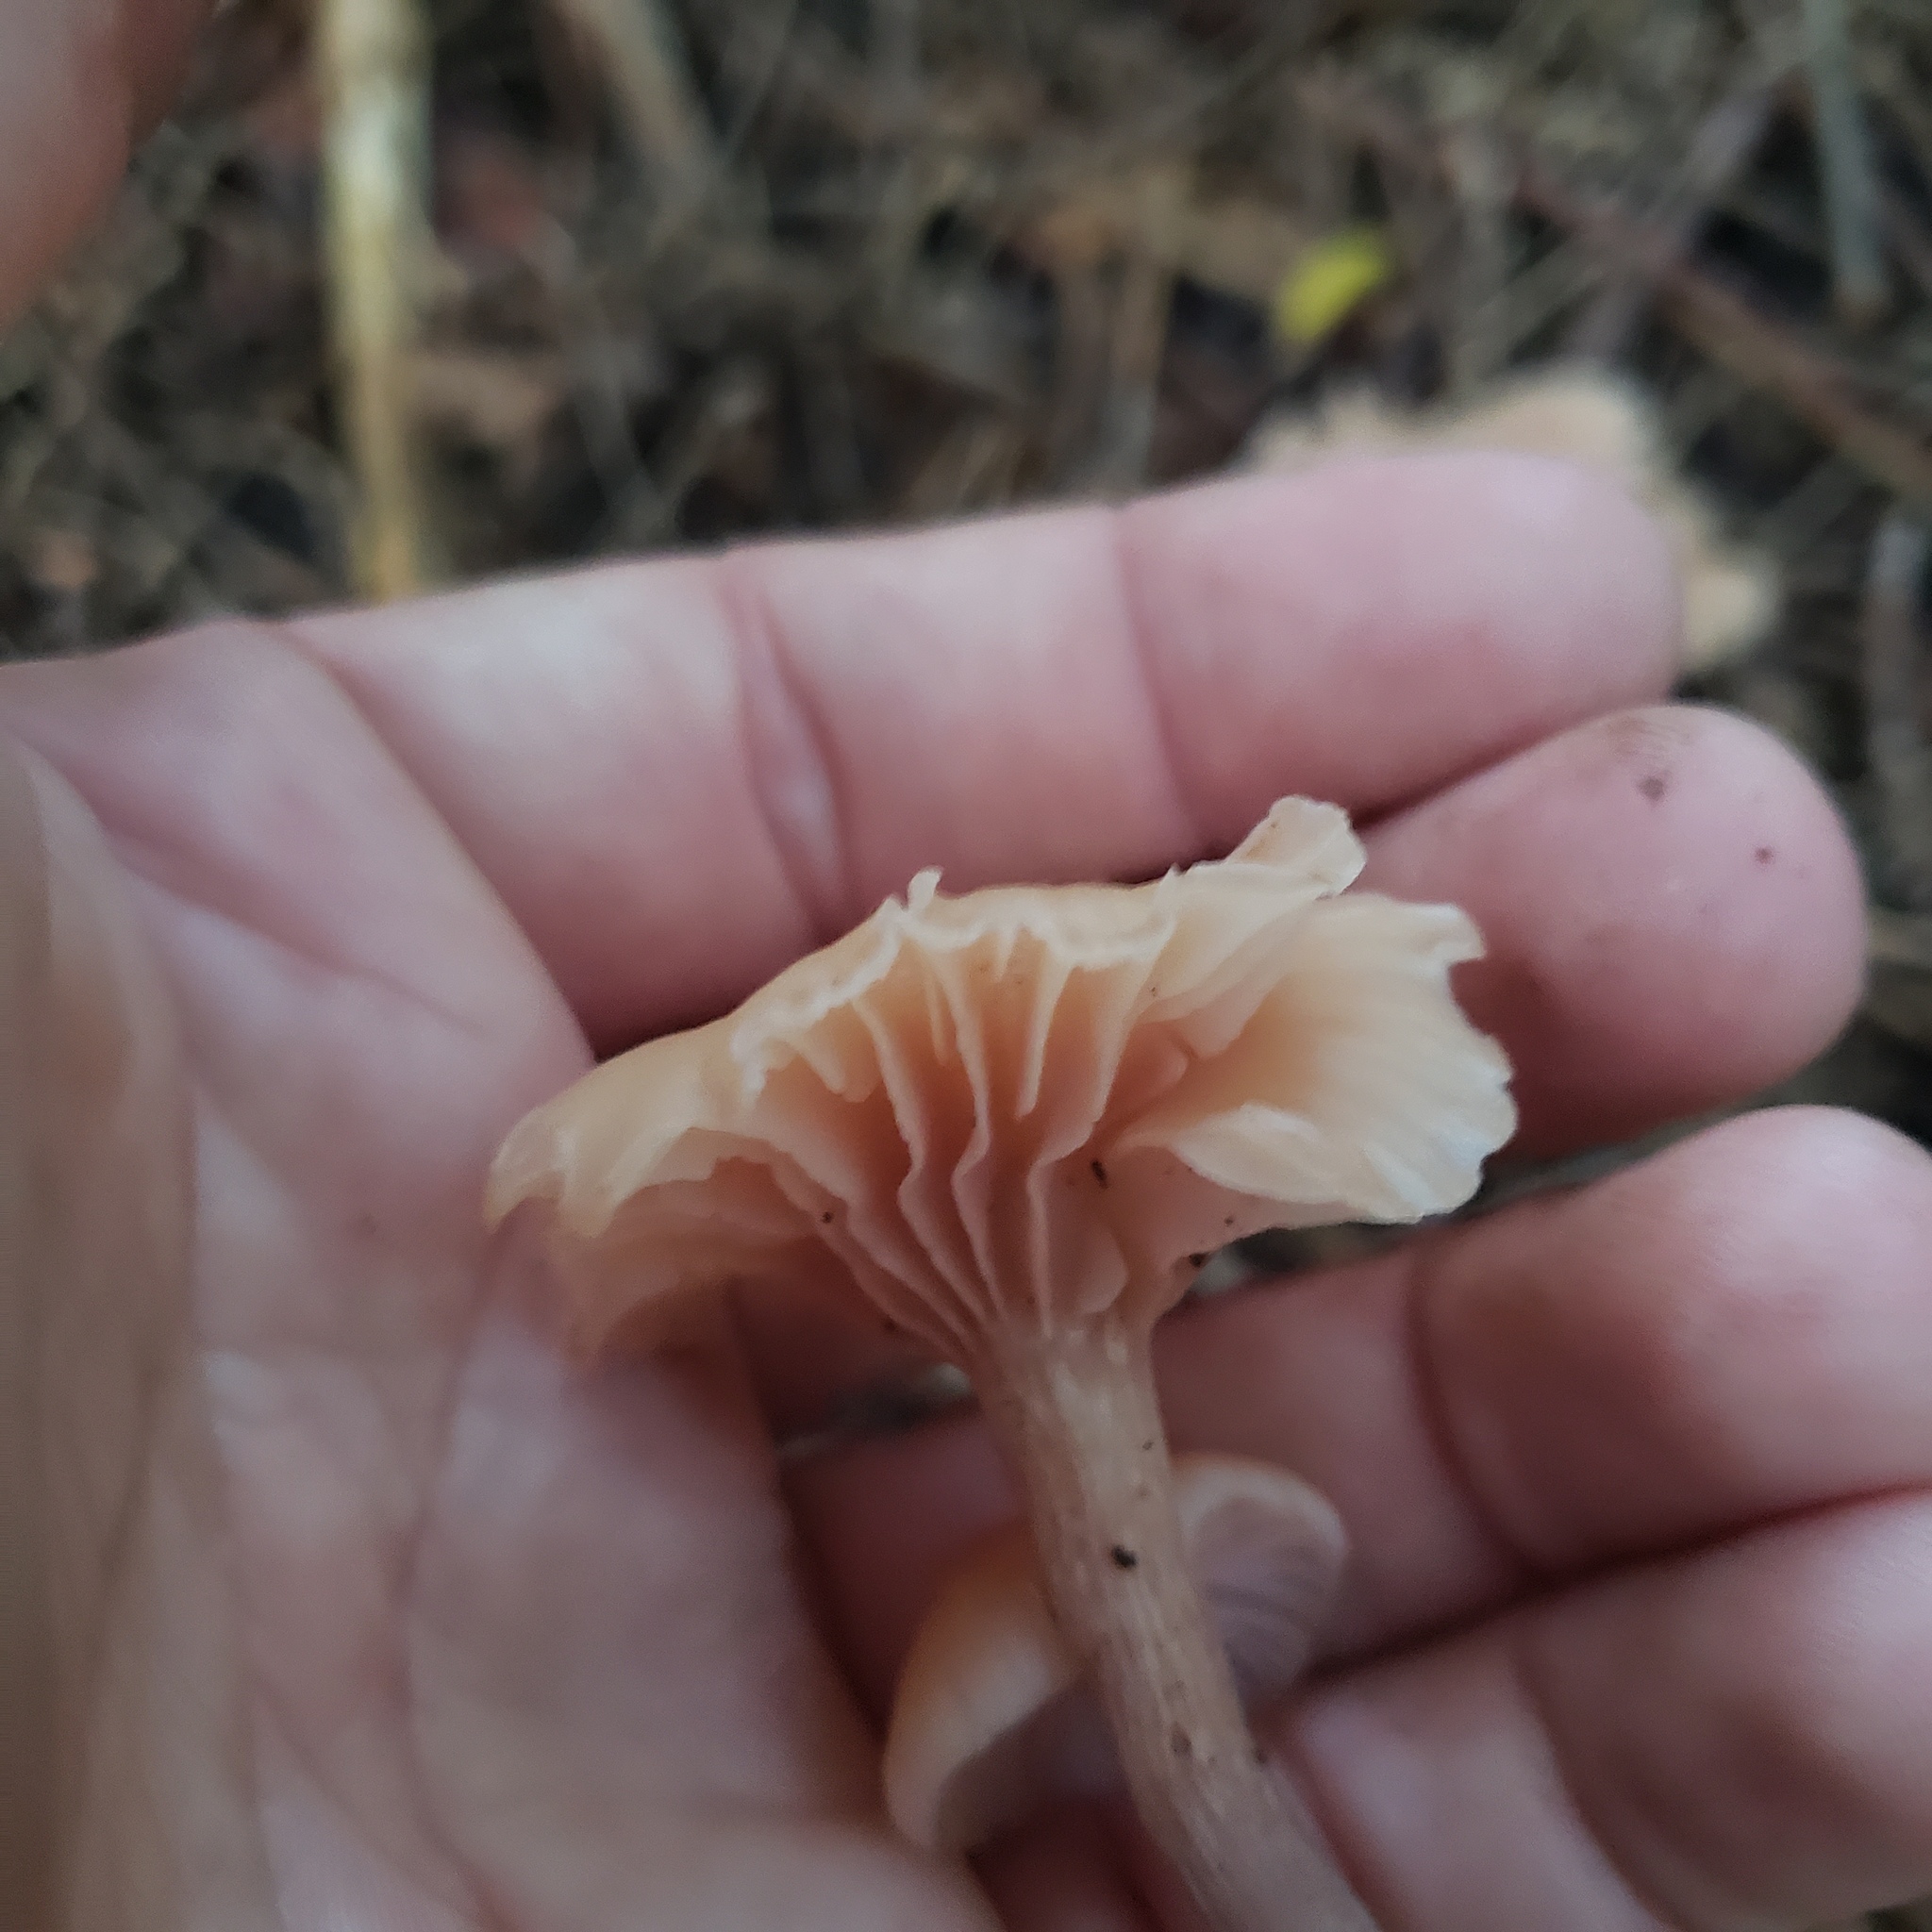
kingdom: Fungi
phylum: Basidiomycota
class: Agaricomycetes
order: Agaricales
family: Hydnangiaceae
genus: Laccaria
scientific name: Laccaria laccata
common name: Deceiver
